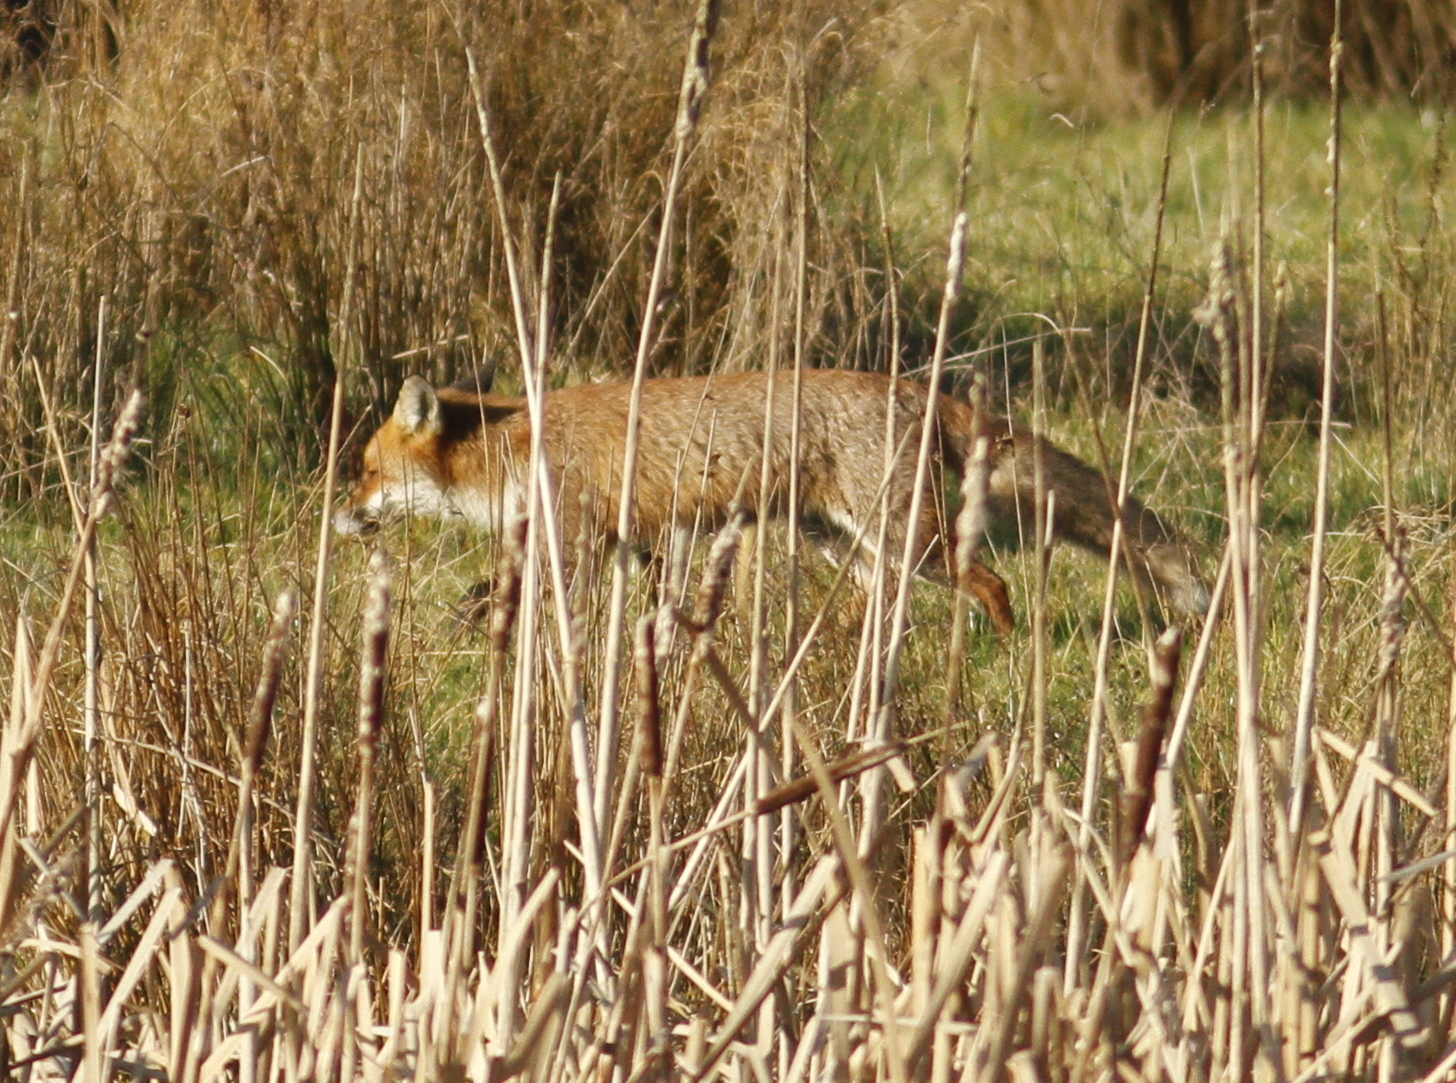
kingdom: Animalia
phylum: Chordata
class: Mammalia
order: Carnivora
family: Canidae
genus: Vulpes
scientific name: Vulpes vulpes
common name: Red fox
